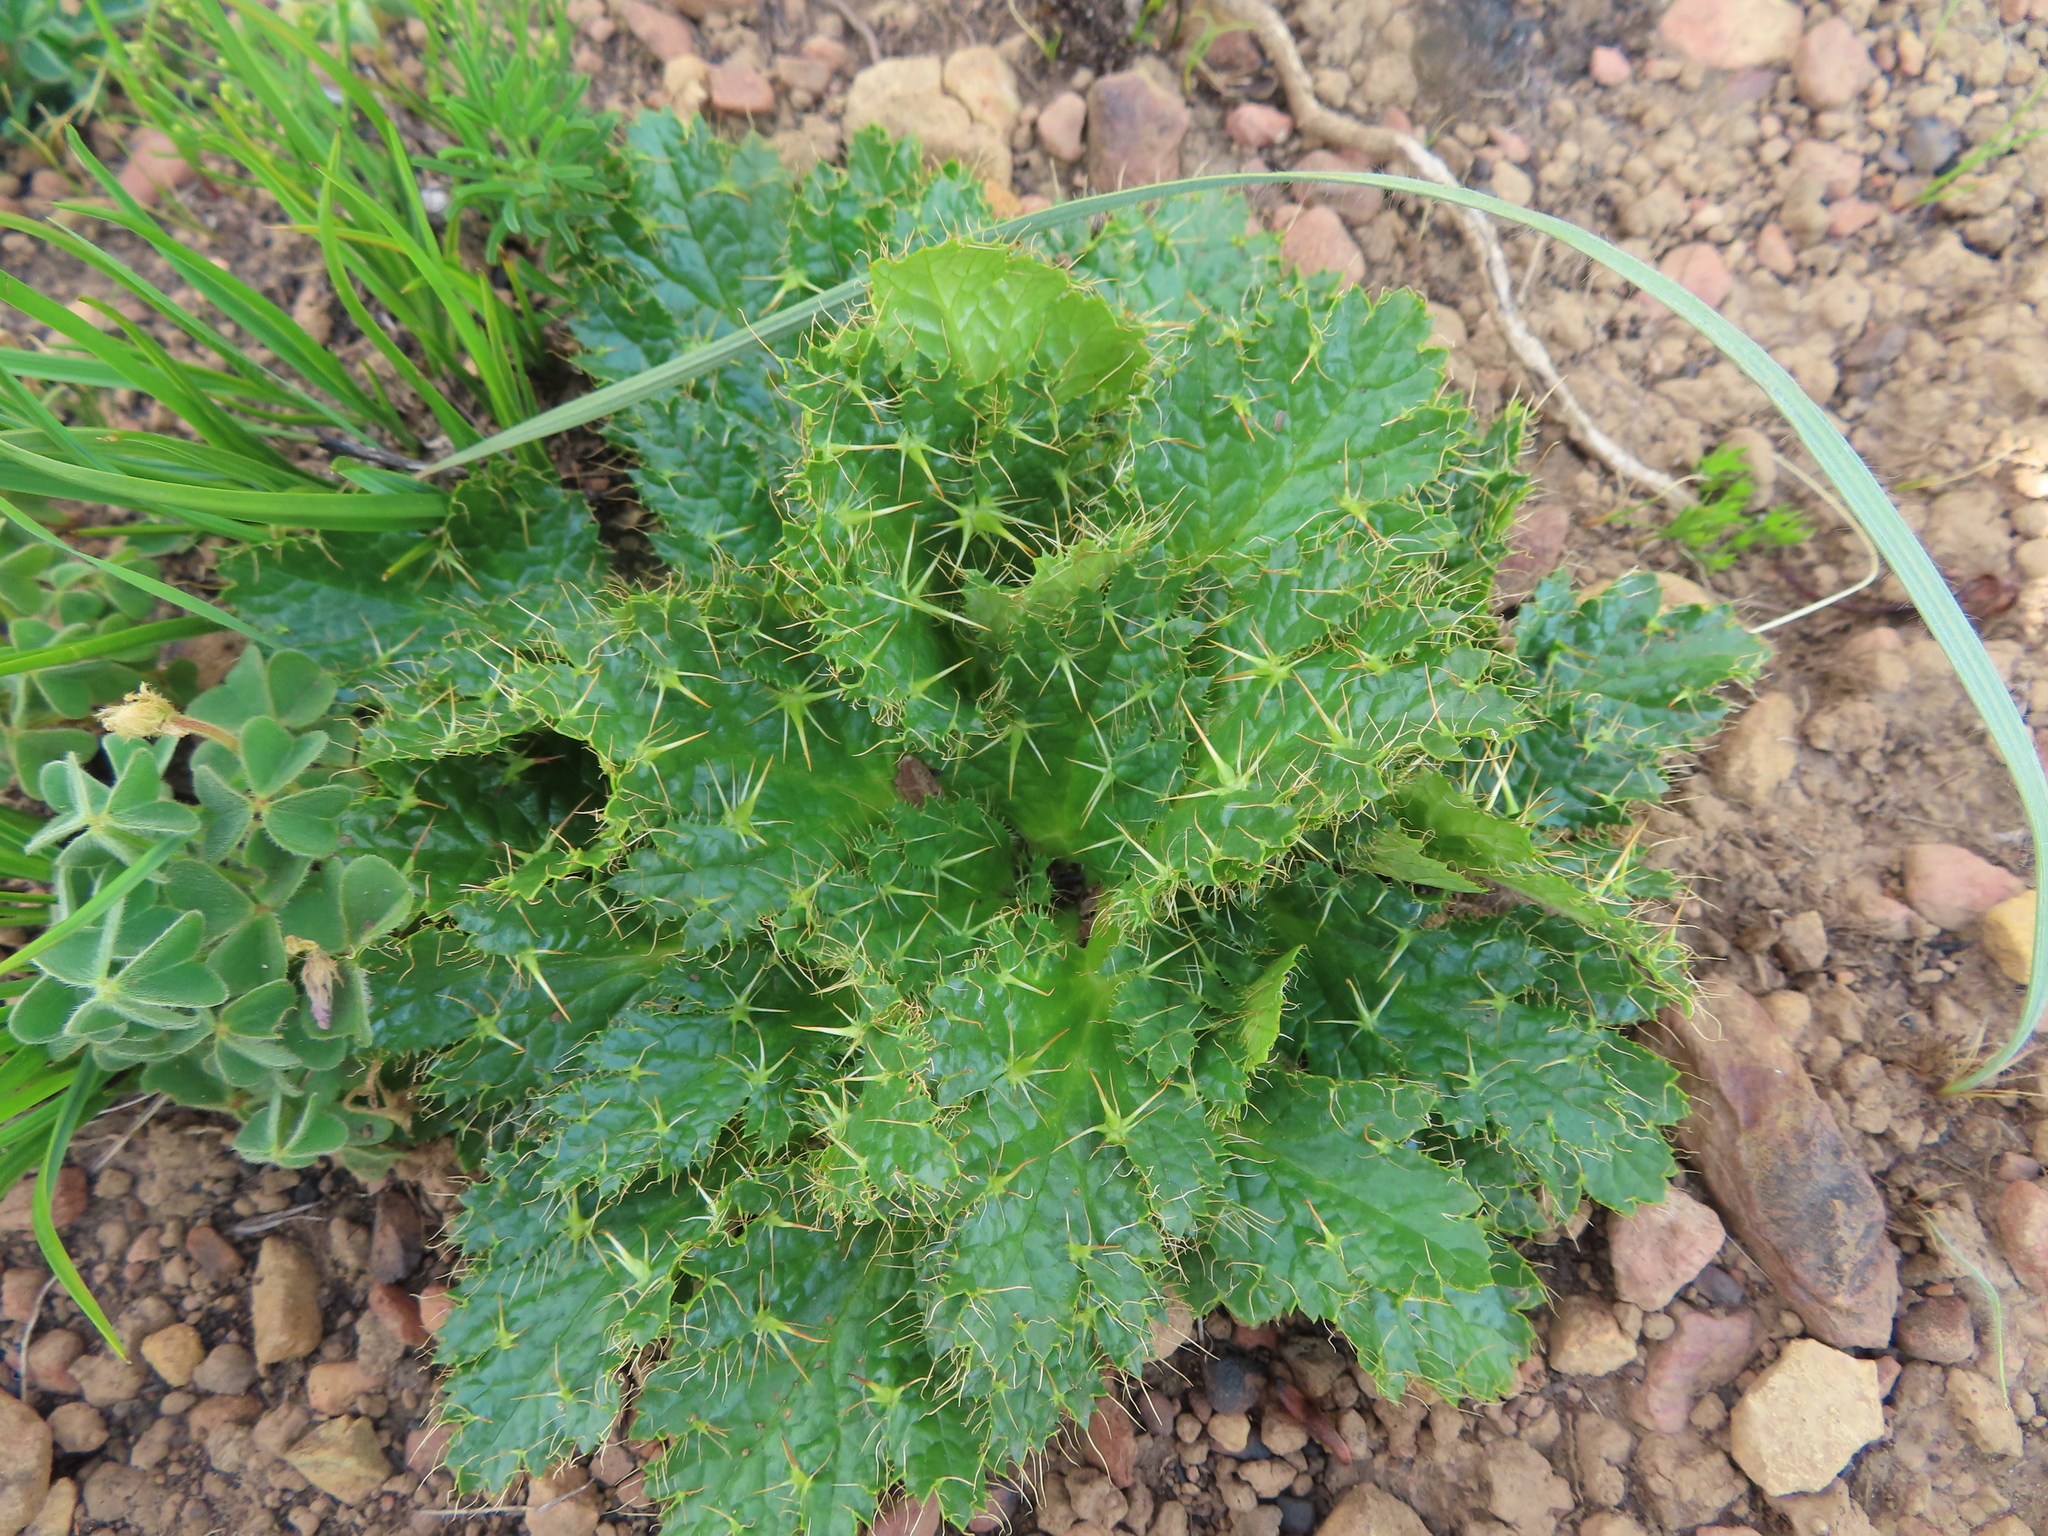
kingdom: Plantae
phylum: Tracheophyta
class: Magnoliopsida
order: Apiales
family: Apiaceae
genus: Arctopus
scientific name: Arctopus monacanthus
